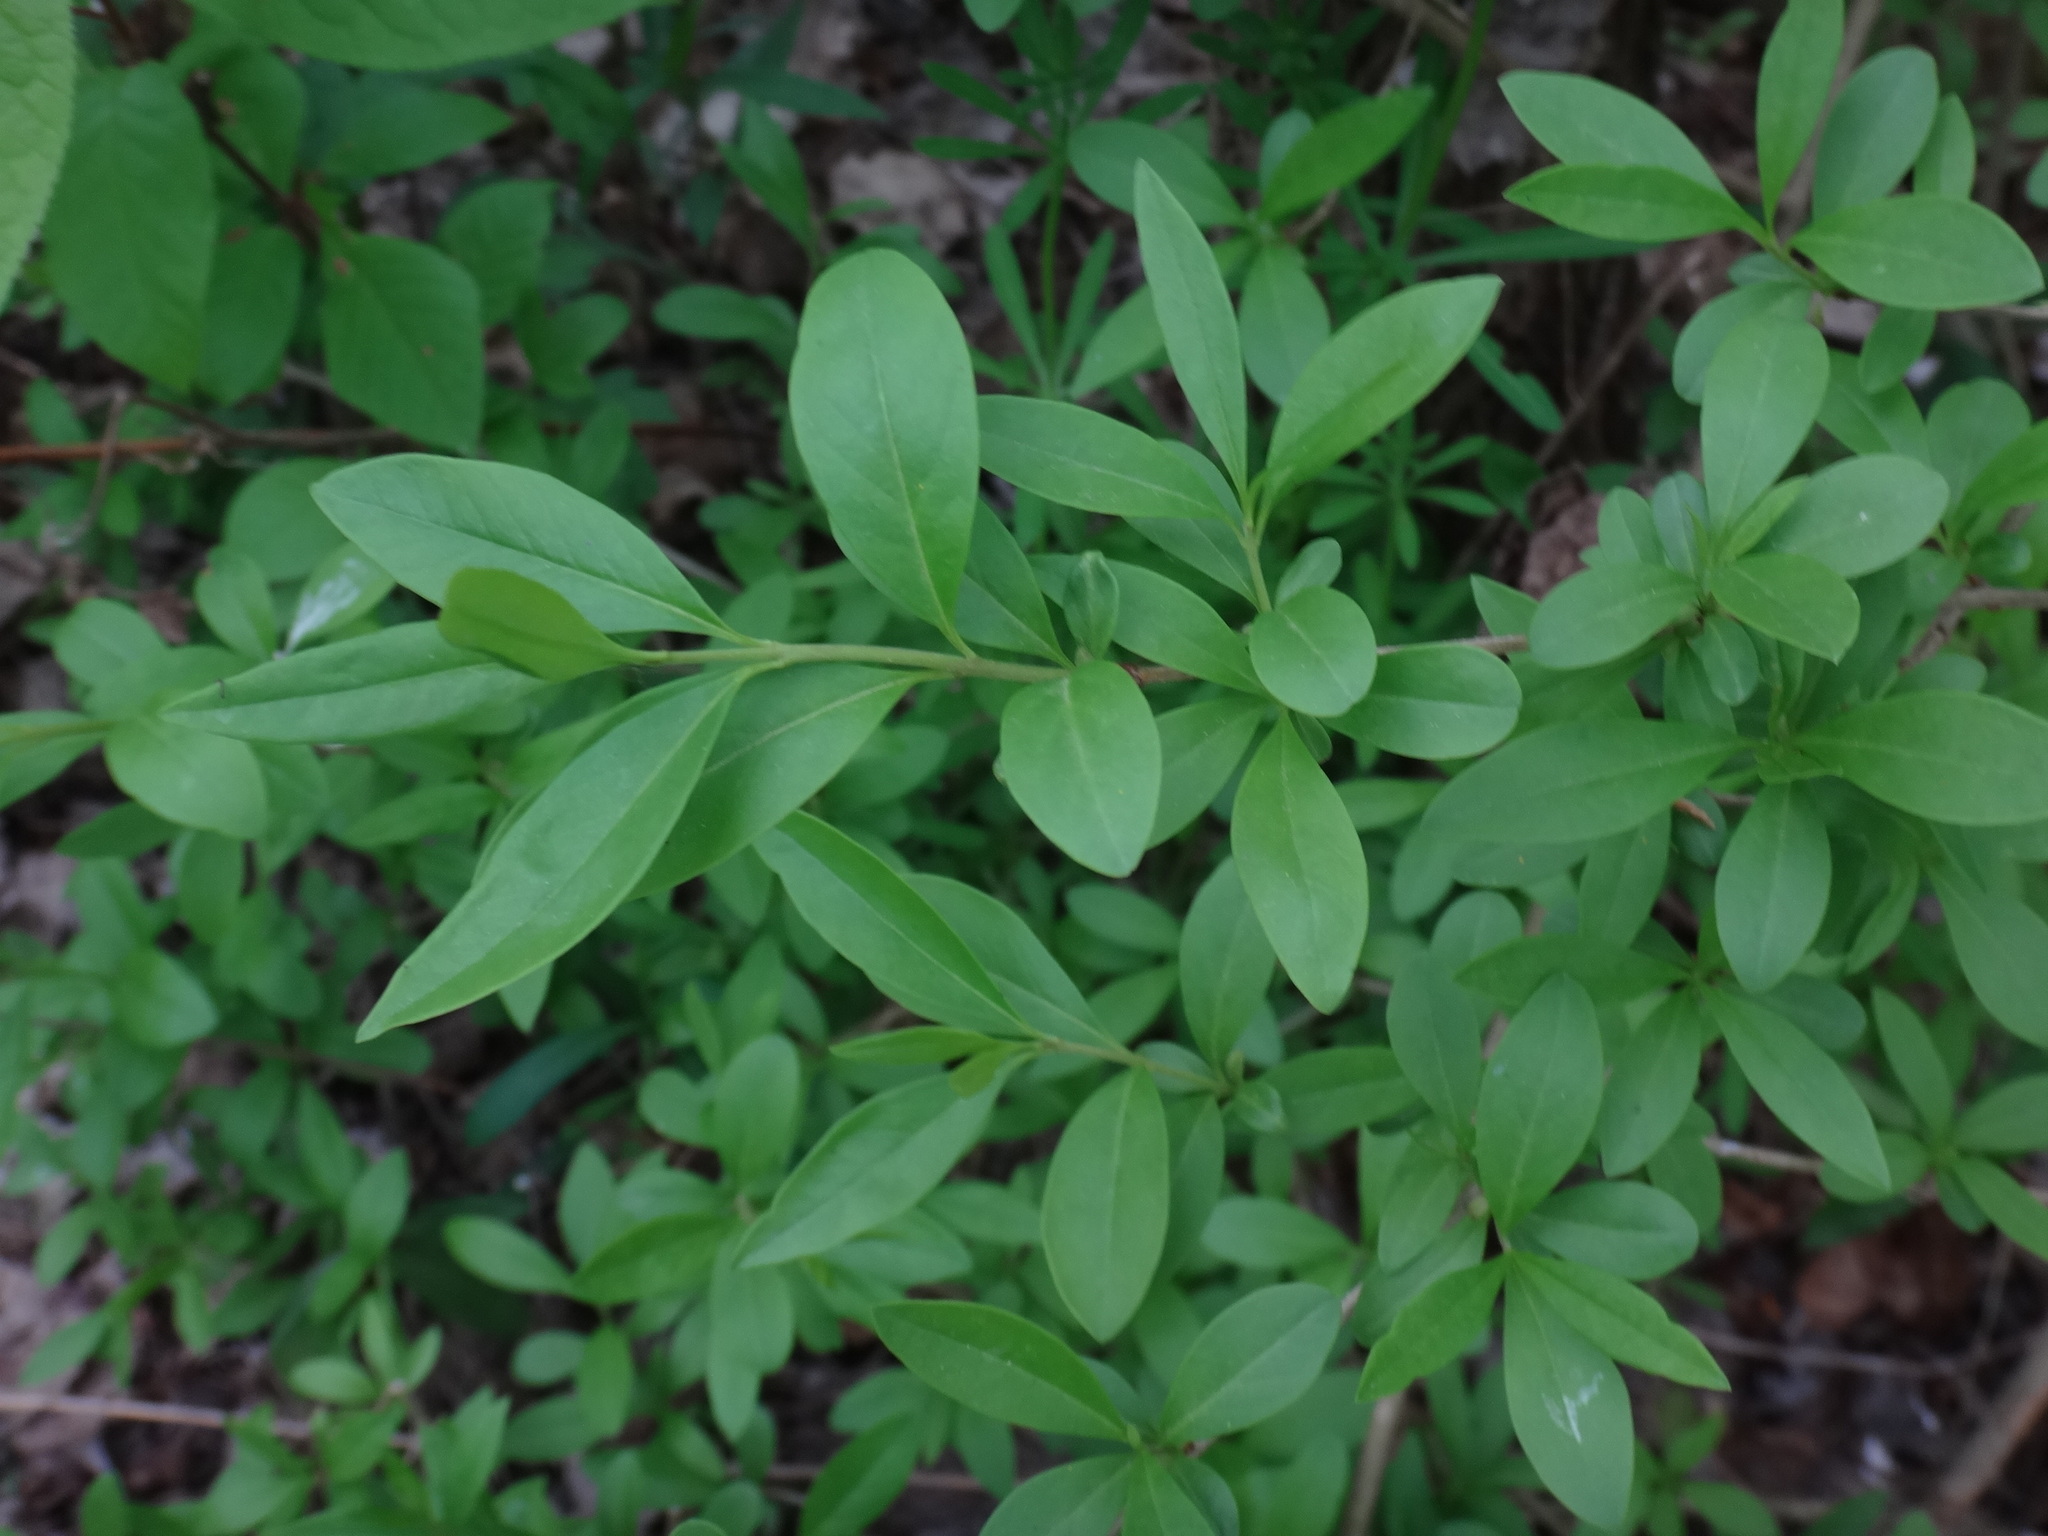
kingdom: Plantae
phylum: Tracheophyta
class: Magnoliopsida
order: Lamiales
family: Oleaceae
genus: Ligustrum
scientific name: Ligustrum vulgare
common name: Wild privet
